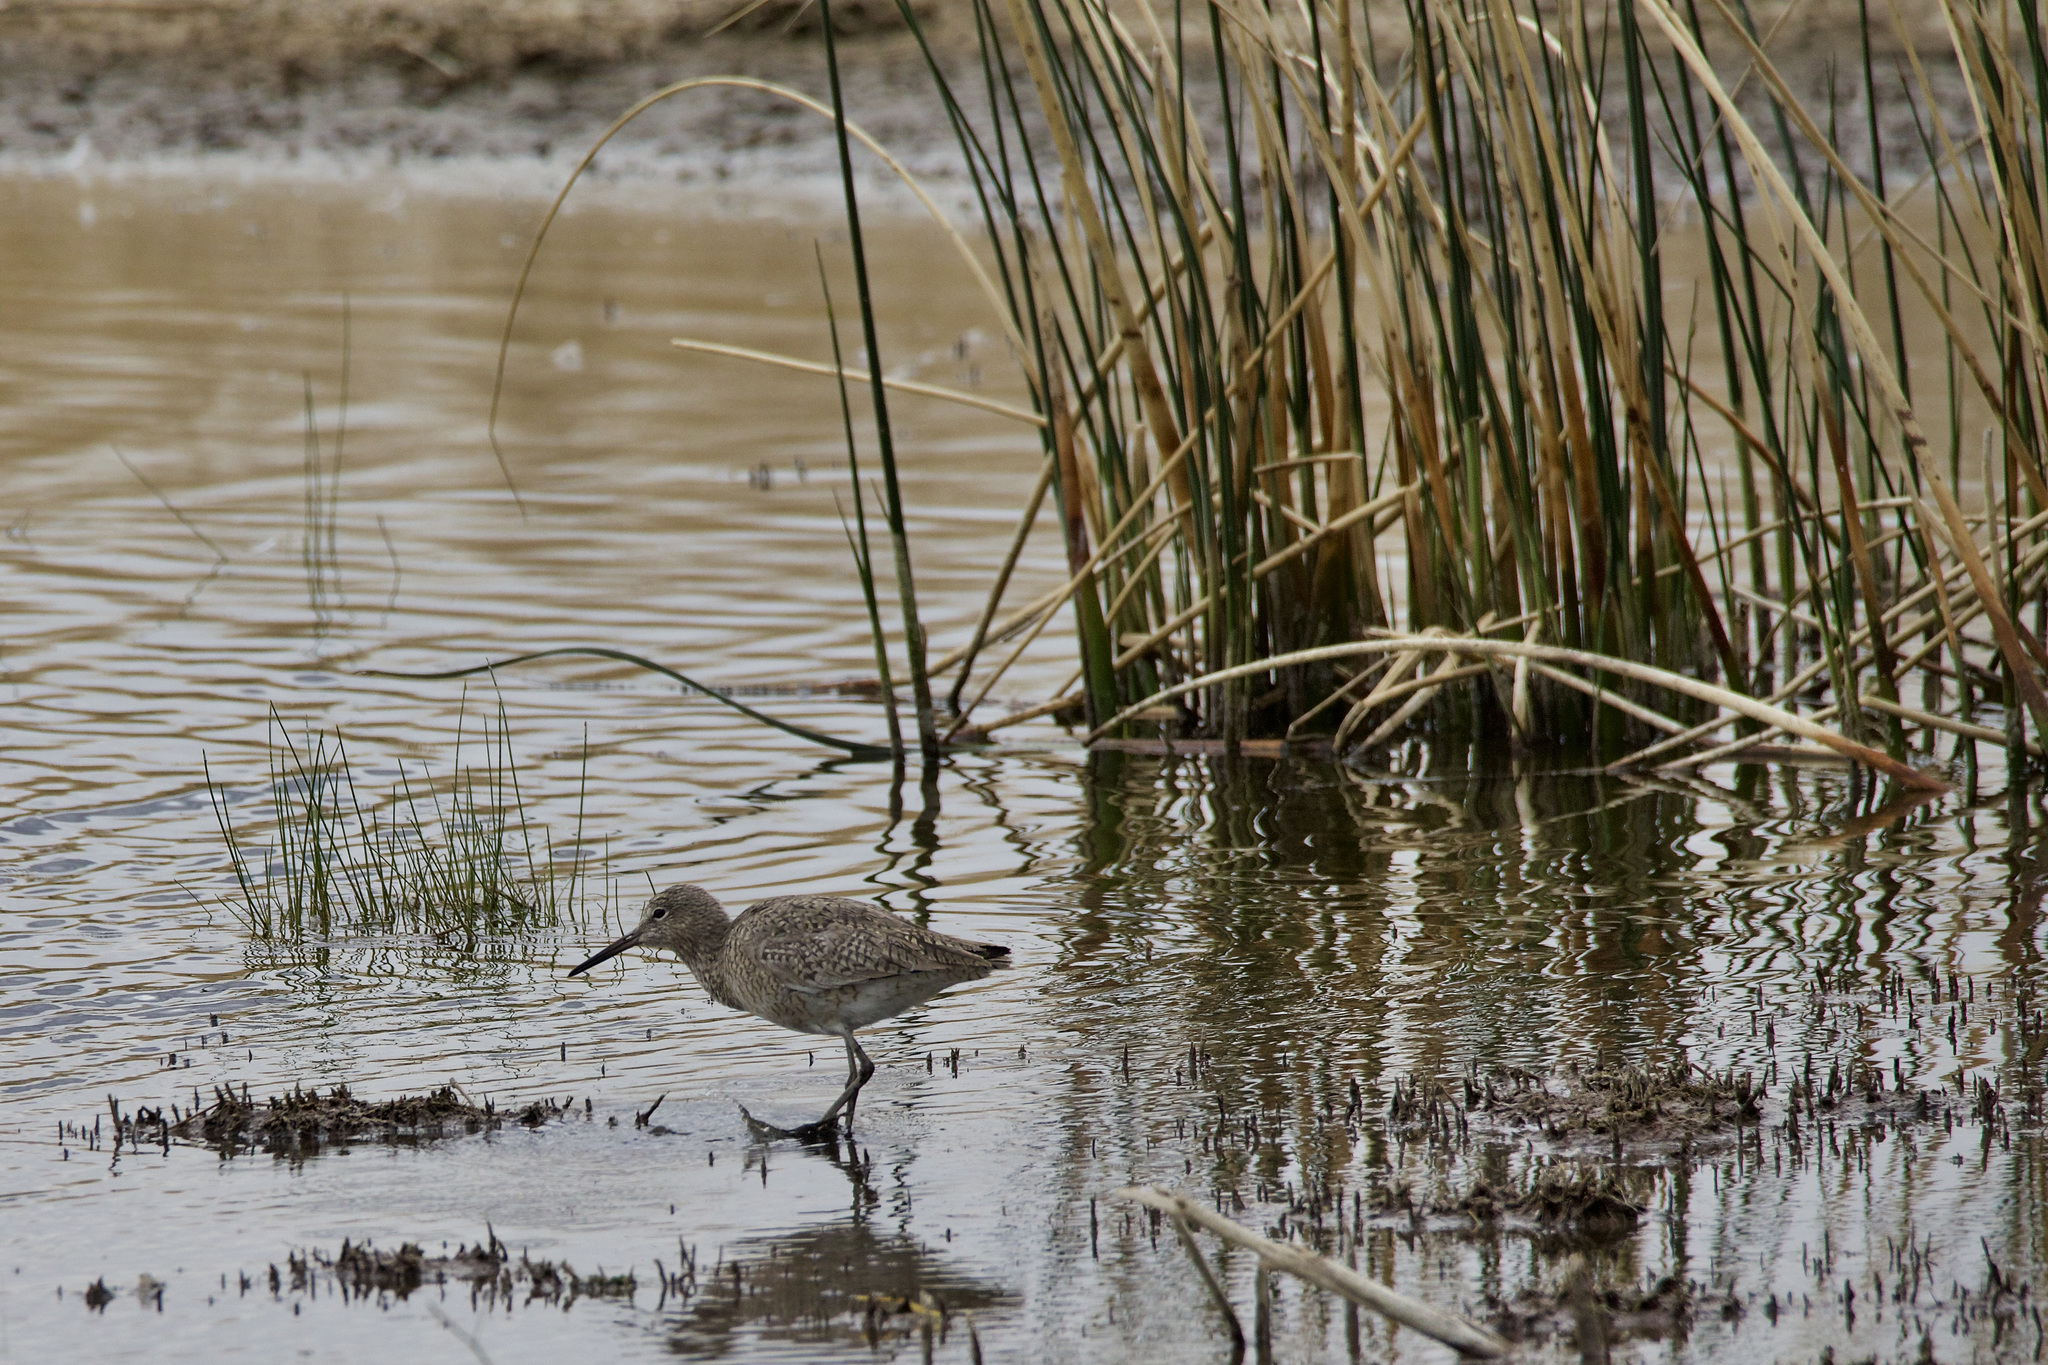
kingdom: Animalia
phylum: Chordata
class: Aves
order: Charadriiformes
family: Scolopacidae
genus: Tringa
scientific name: Tringa semipalmata
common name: Willet
